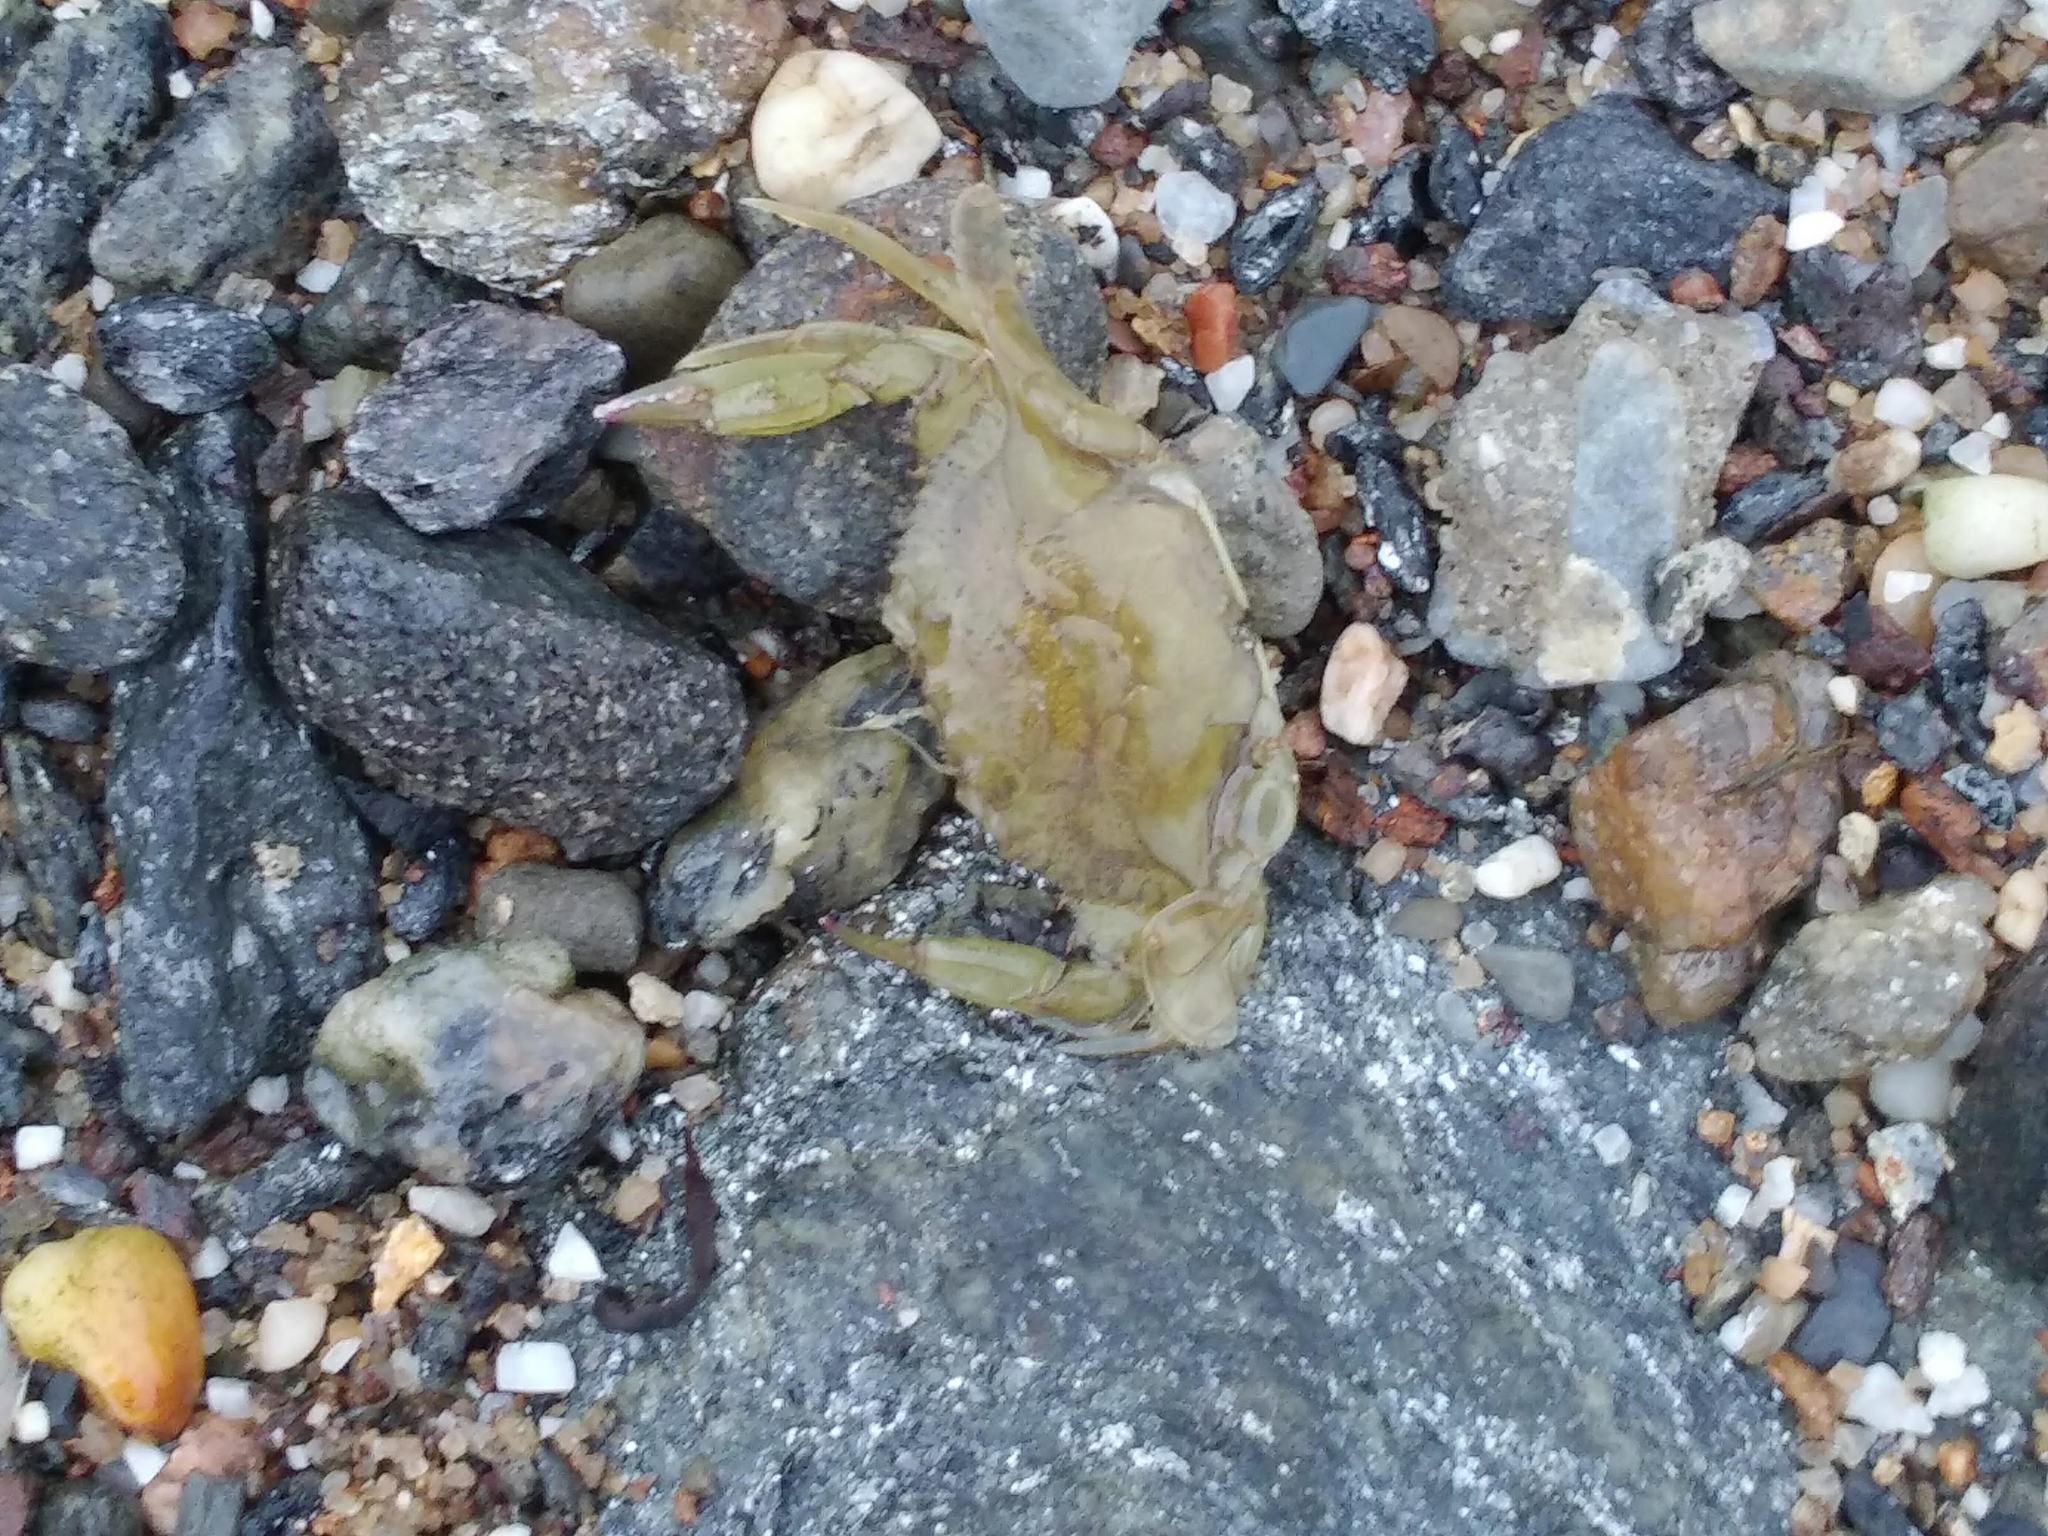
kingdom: Animalia
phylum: Arthropoda
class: Malacostraca
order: Decapoda
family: Portunidae
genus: Callinectes
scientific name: Callinectes sapidus
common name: Blue crab
